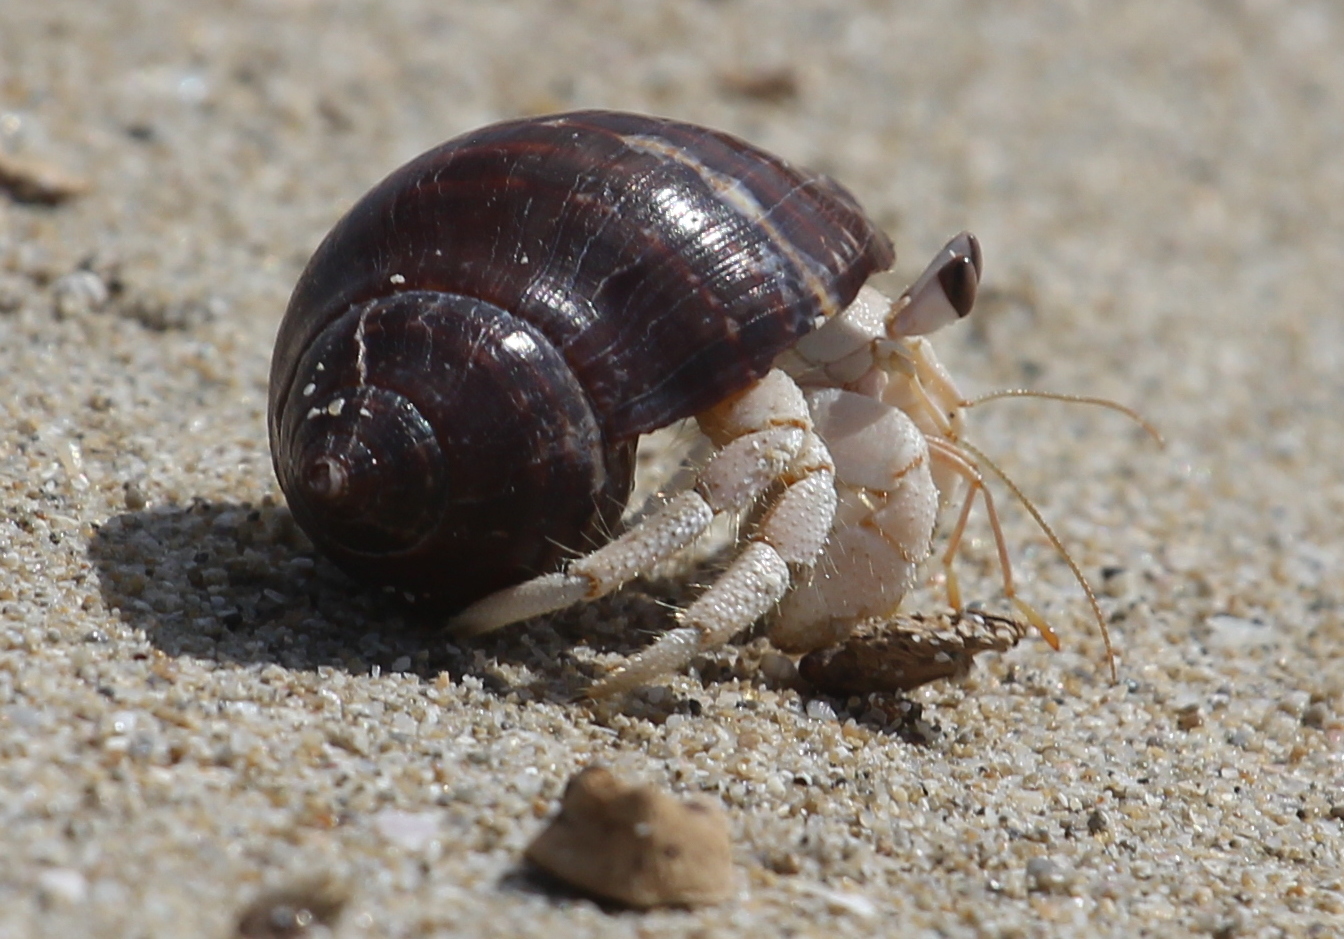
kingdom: Animalia
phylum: Arthropoda
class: Malacostraca
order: Decapoda
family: Coenobitidae
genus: Coenobita
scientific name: Coenobita scaevola
